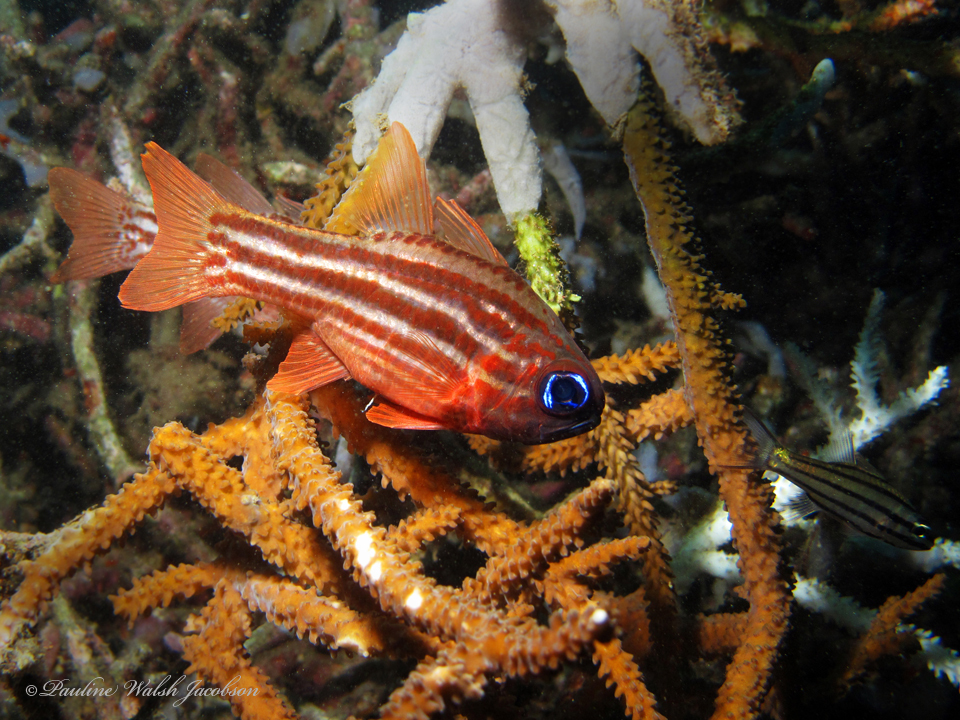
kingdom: Animalia
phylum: Chordata
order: Perciformes
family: Apogonidae
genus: Ostorhinchus
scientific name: Ostorhinchus compressus
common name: Ochre-striped cardinalfish
